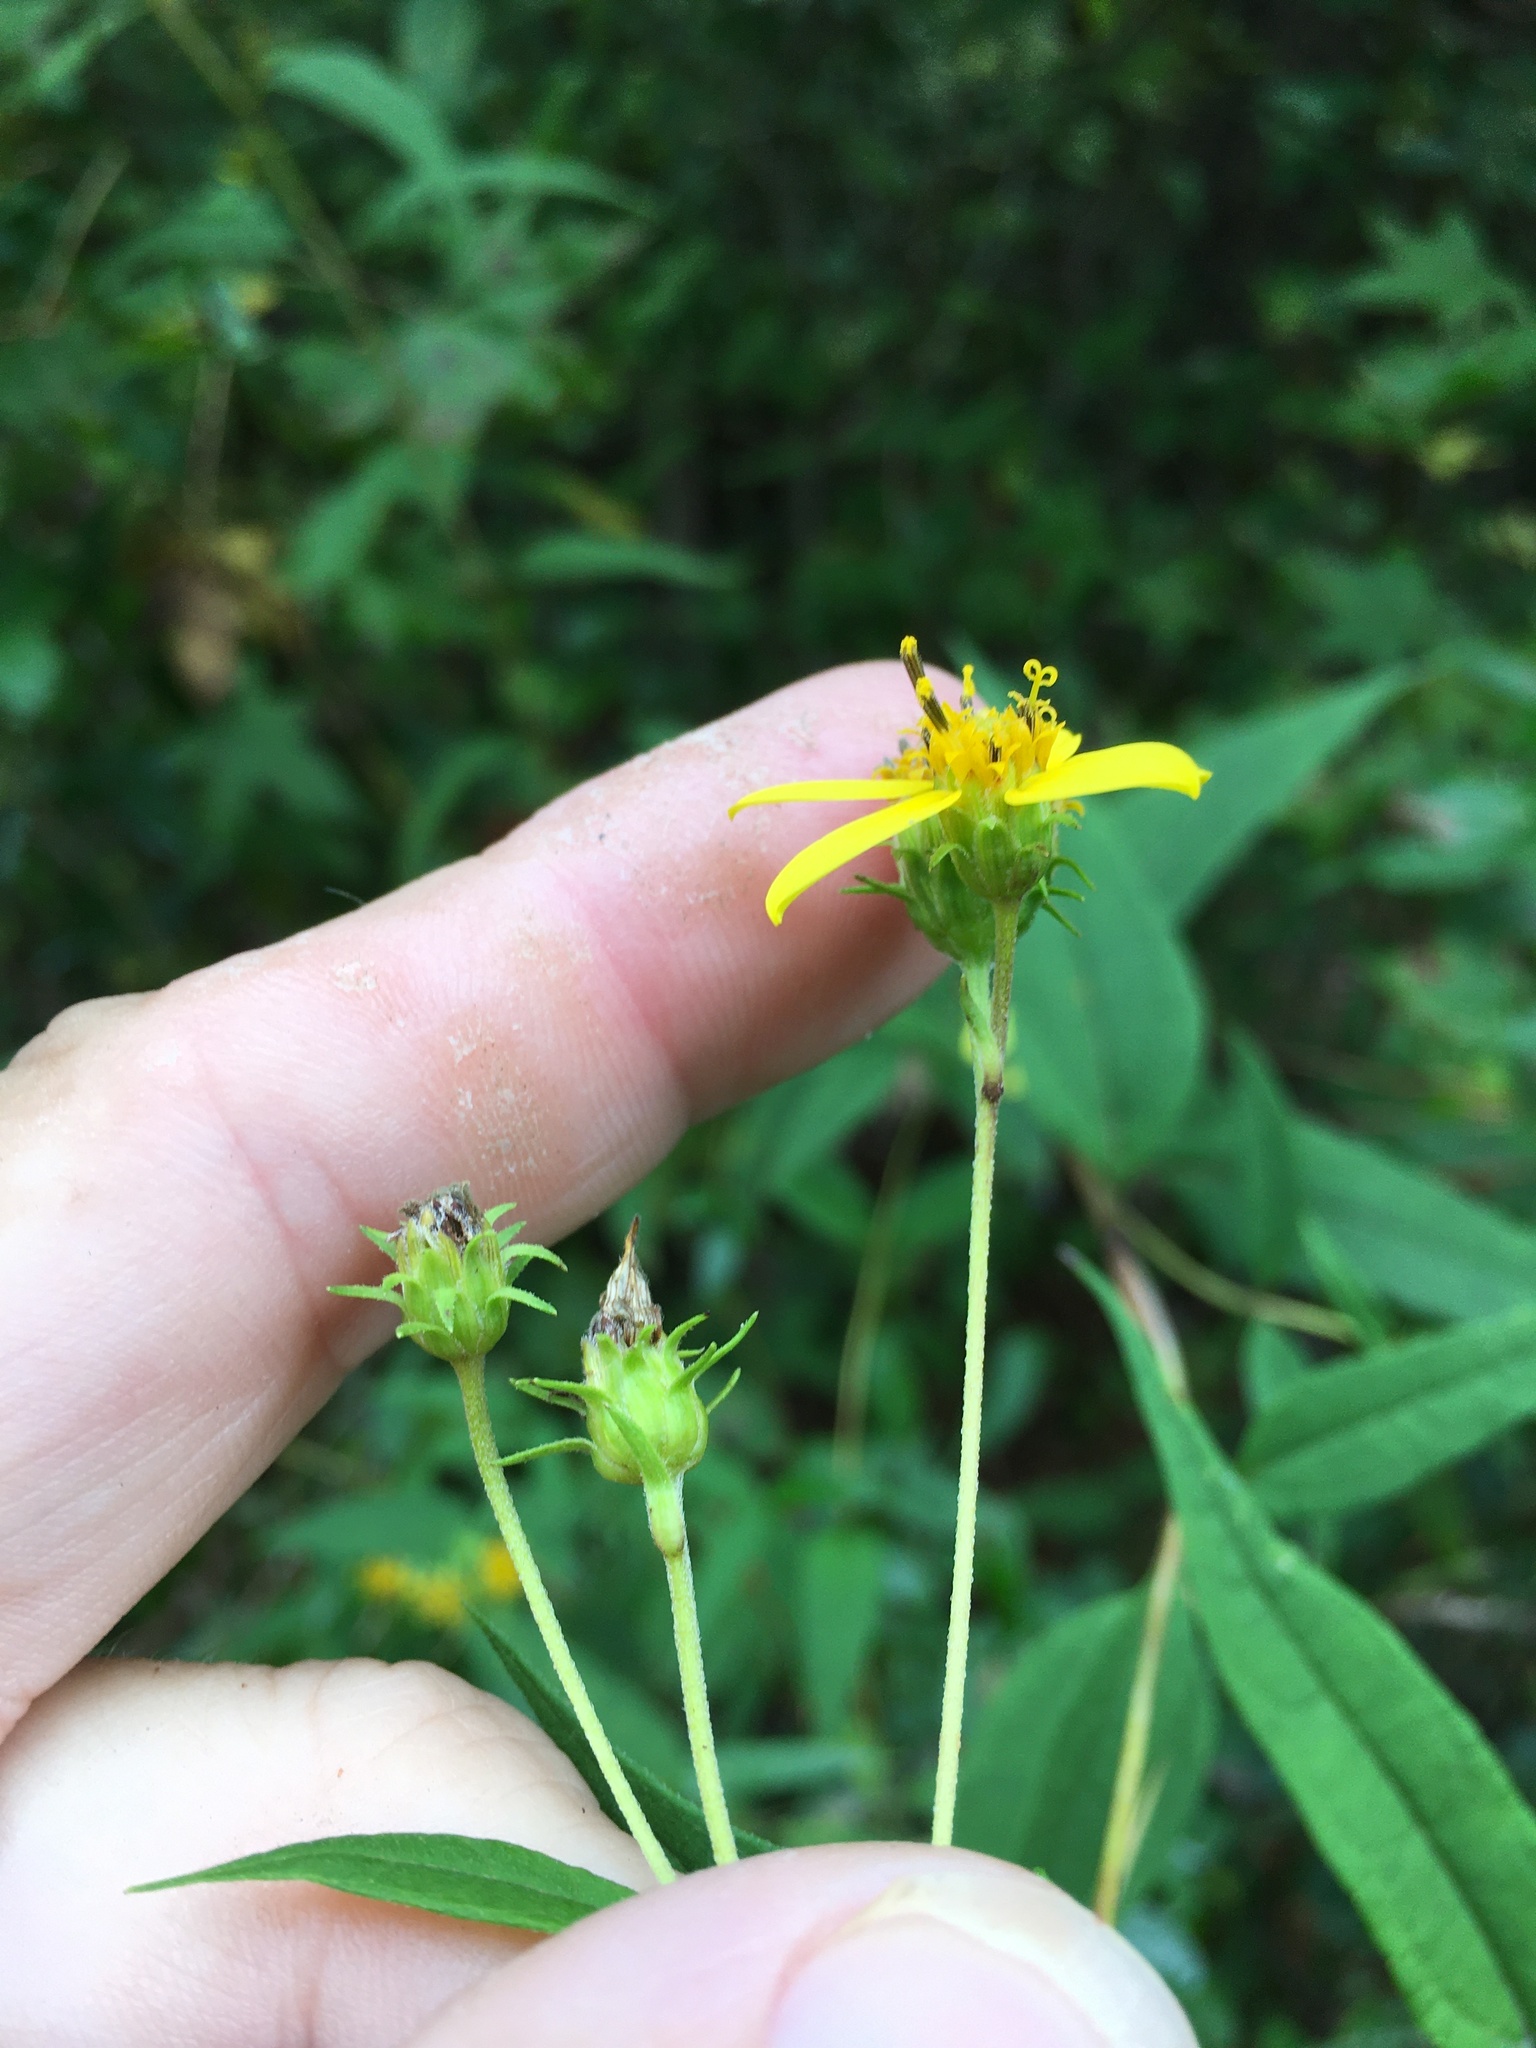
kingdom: Plantae
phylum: Tracheophyta
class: Magnoliopsida
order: Asterales
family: Asteraceae
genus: Helianthus
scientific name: Helianthus microcephalus
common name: Woodland sunflower
